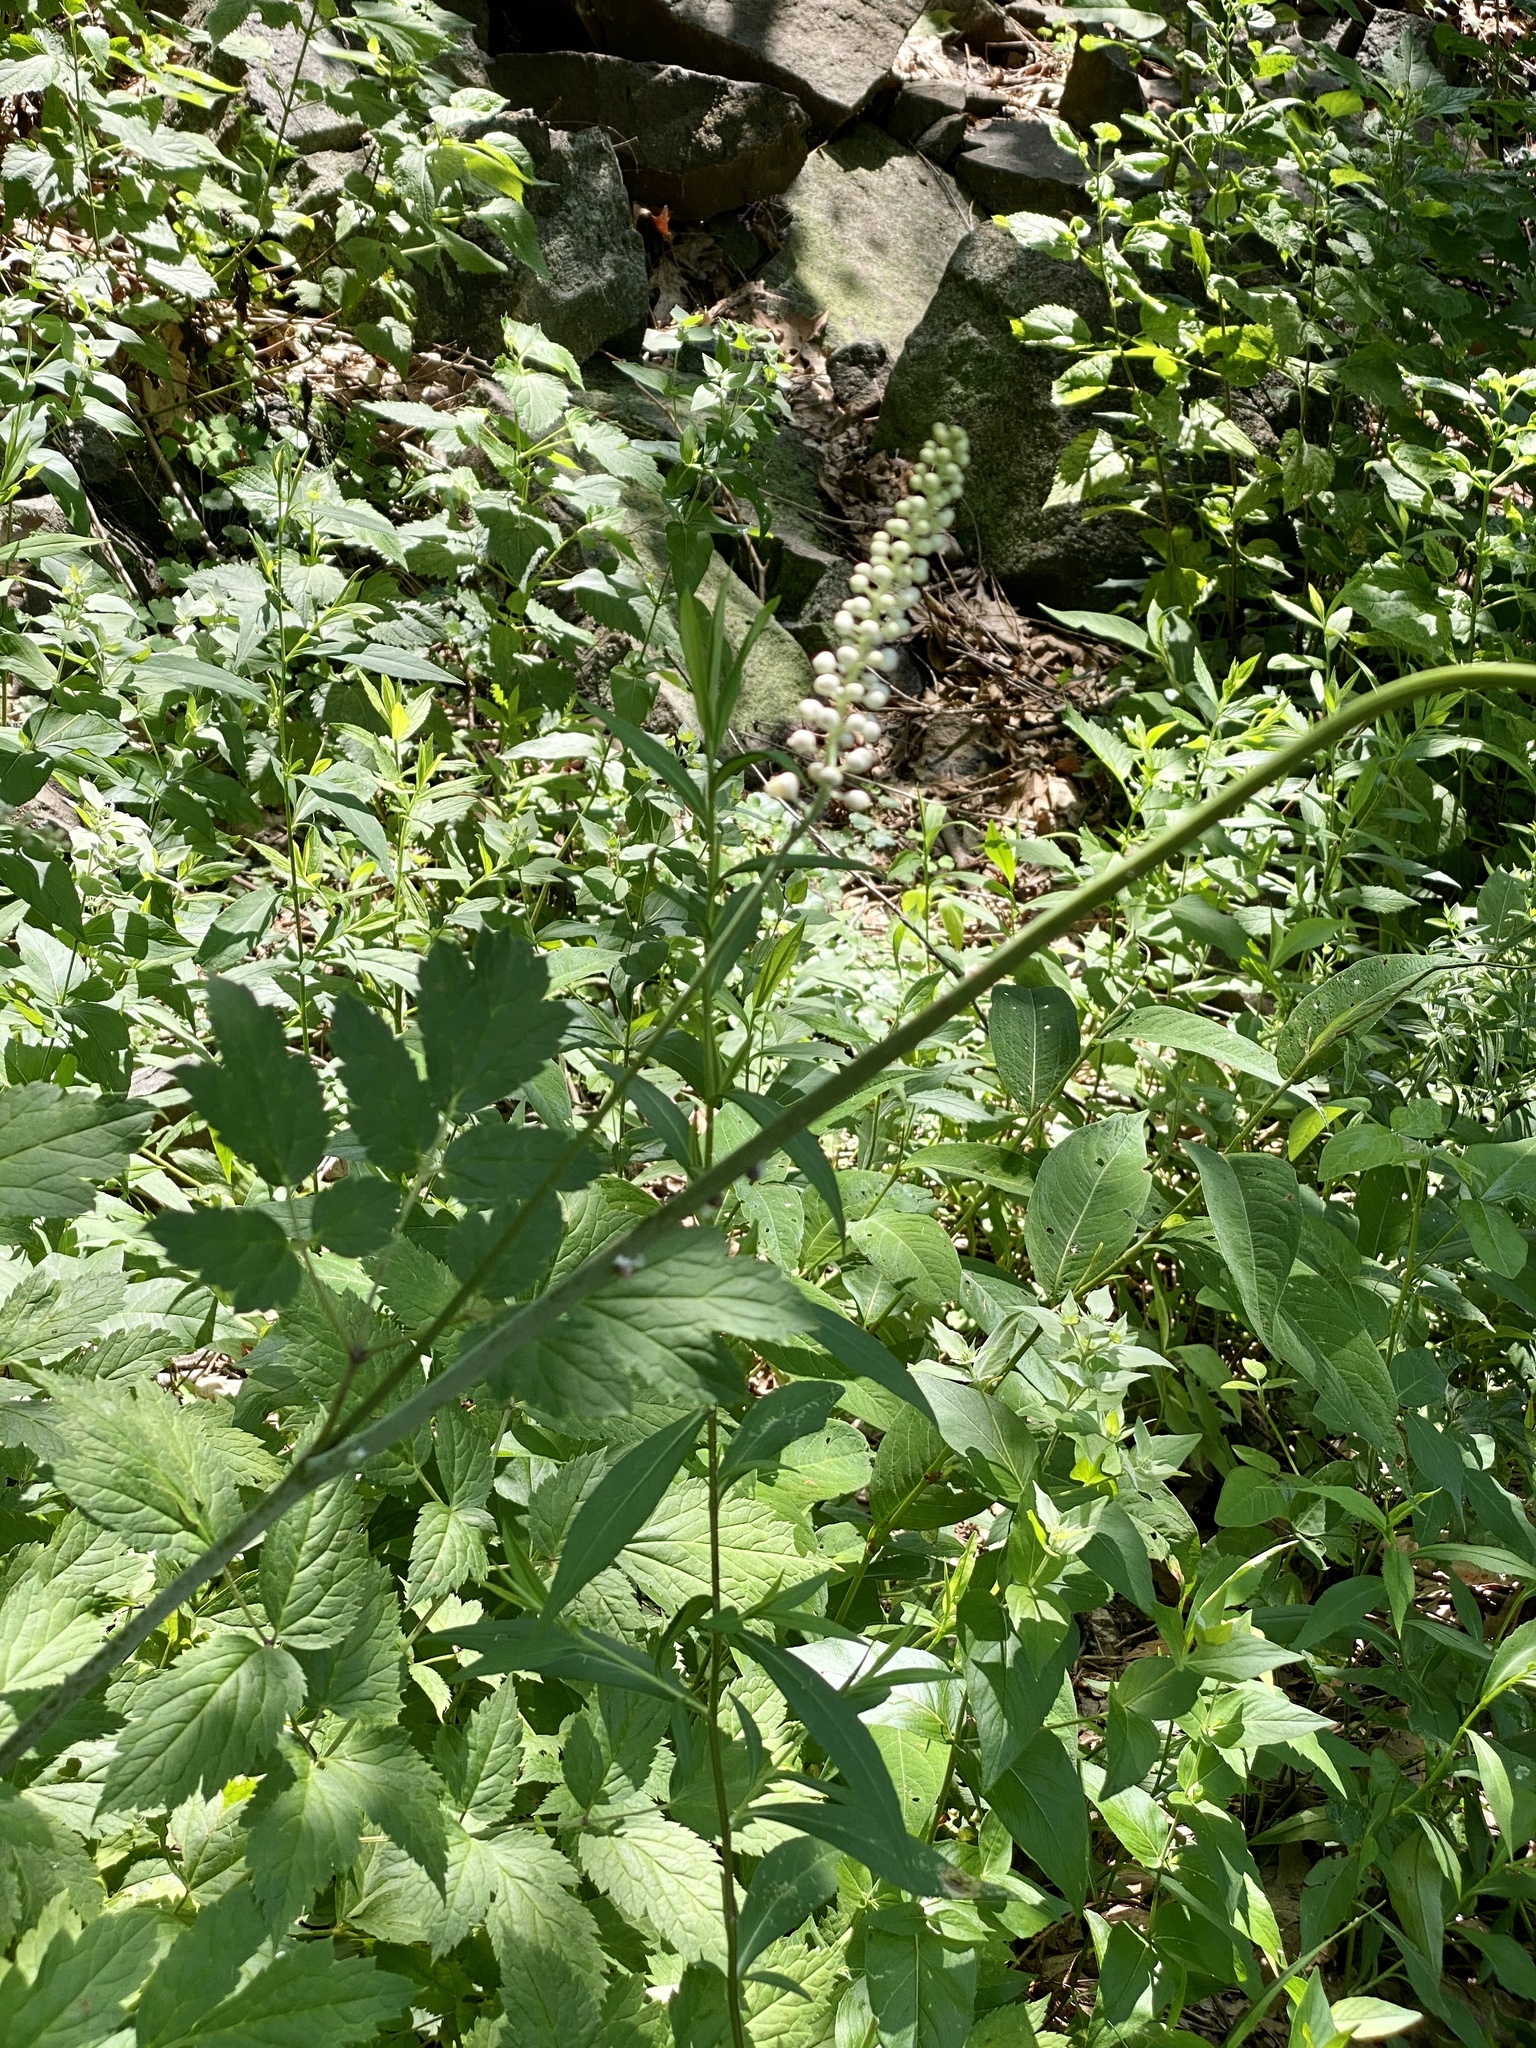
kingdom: Plantae
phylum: Tracheophyta
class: Magnoliopsida
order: Ranunculales
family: Ranunculaceae
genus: Actaea
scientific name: Actaea racemosa
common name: Black cohosh
